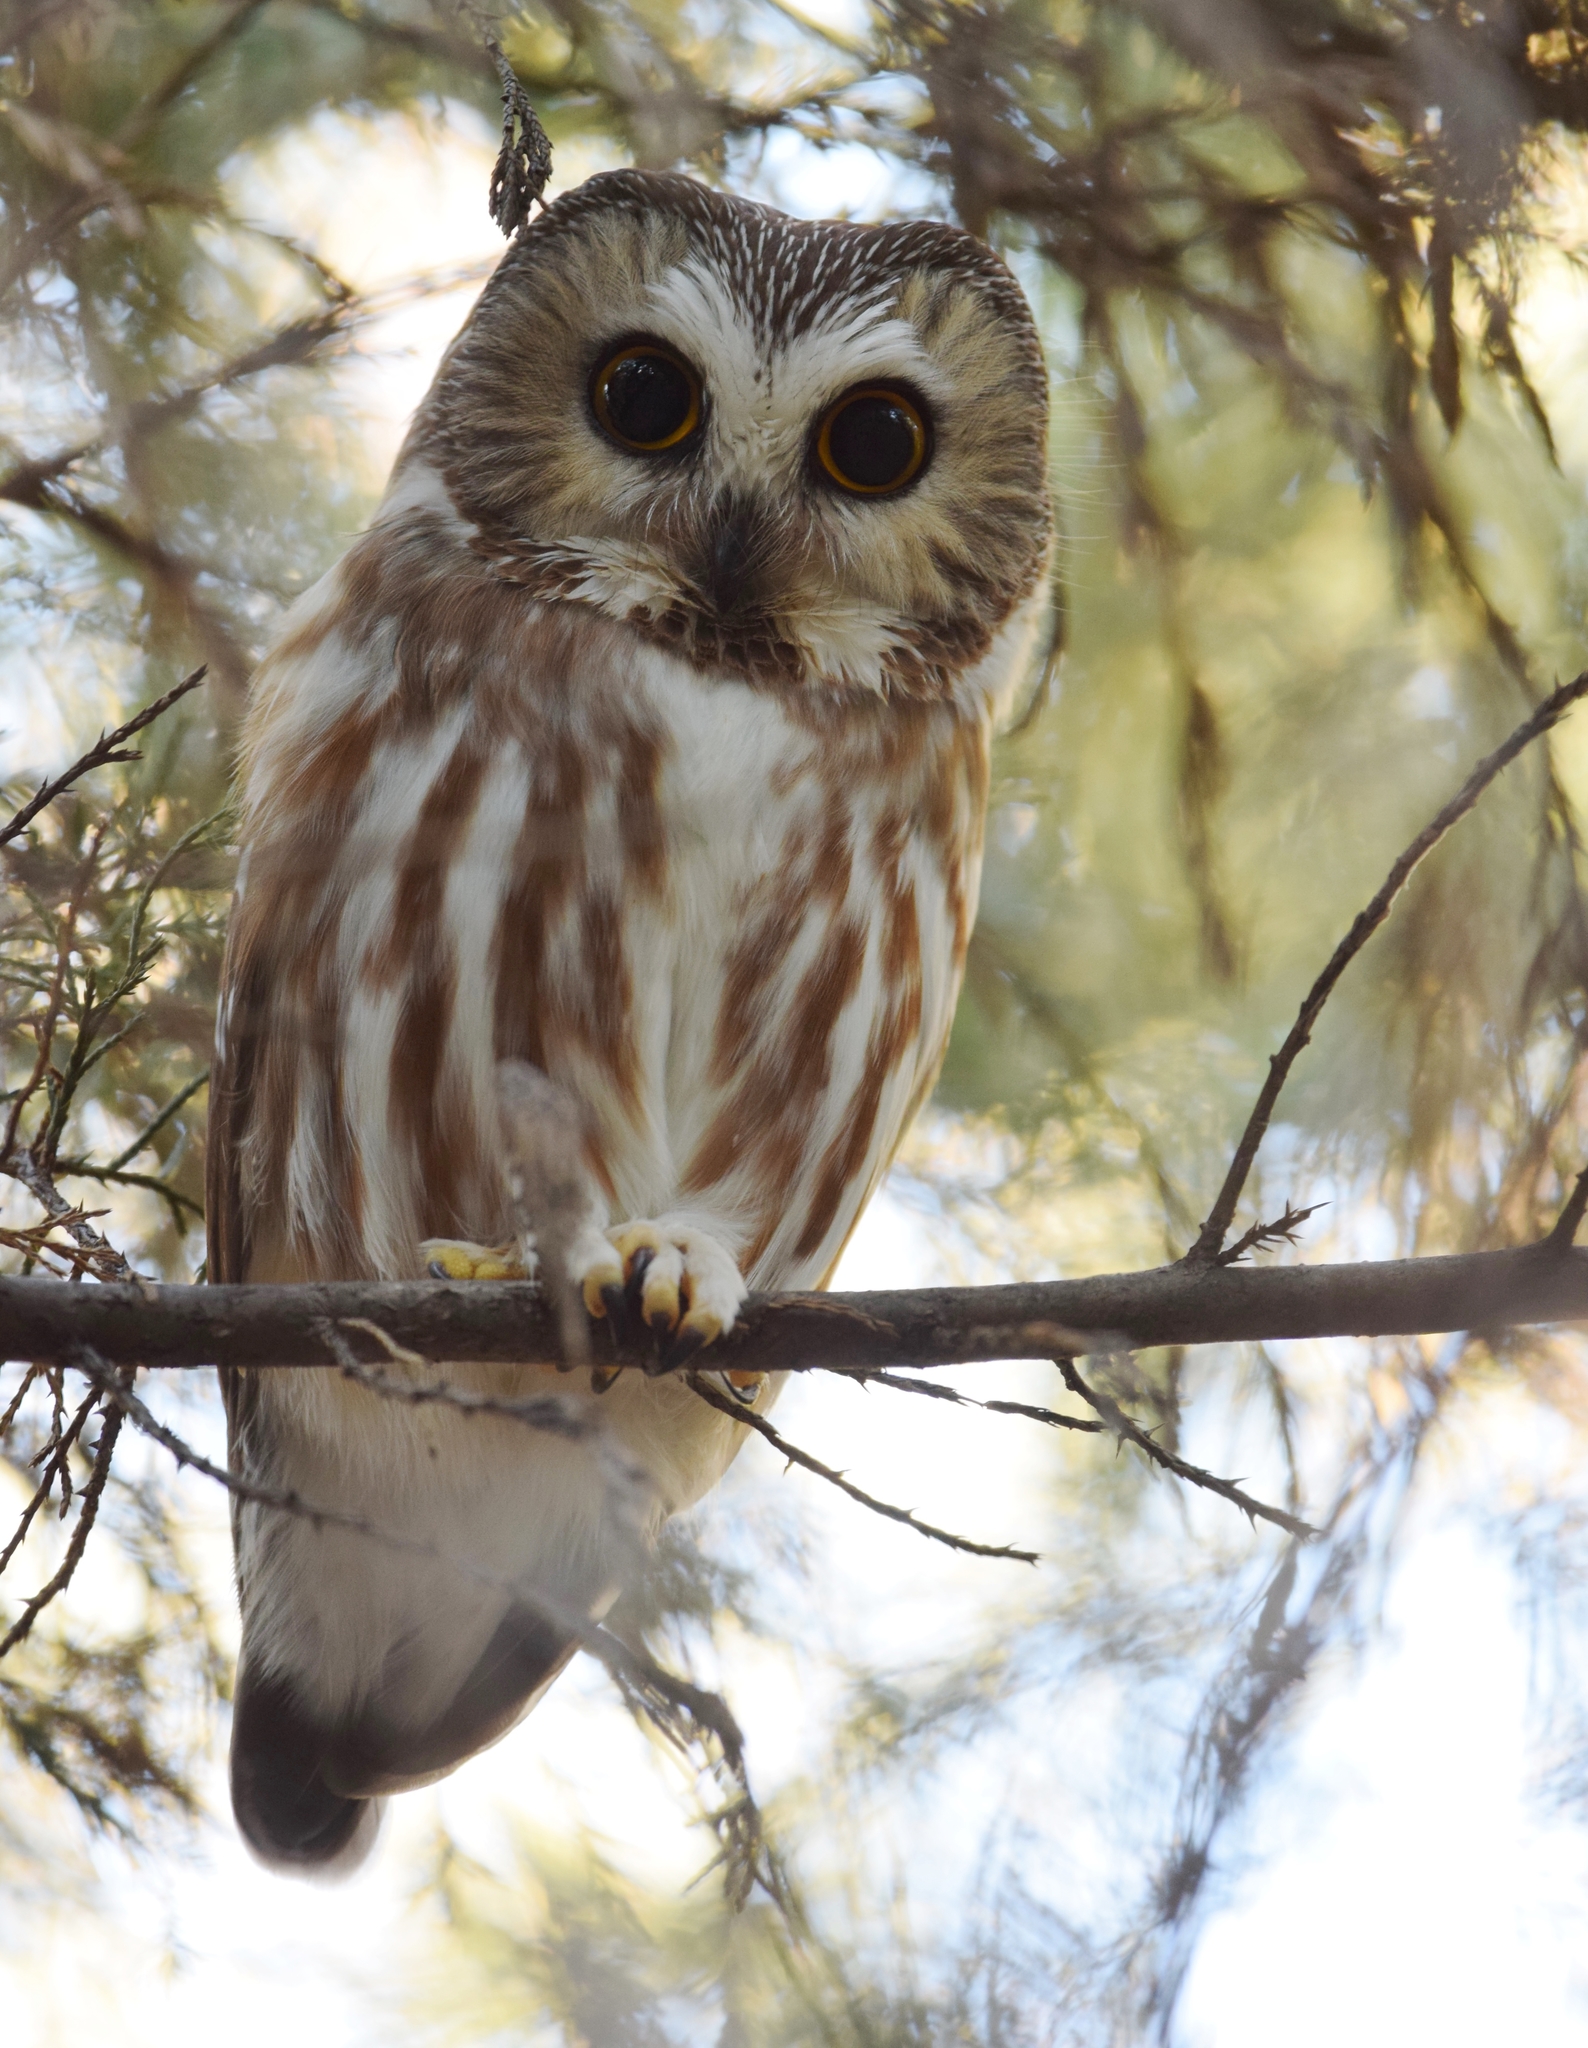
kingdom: Animalia
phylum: Chordata
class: Aves
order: Strigiformes
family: Strigidae
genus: Aegolius
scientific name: Aegolius acadicus
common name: Northern saw-whet owl
